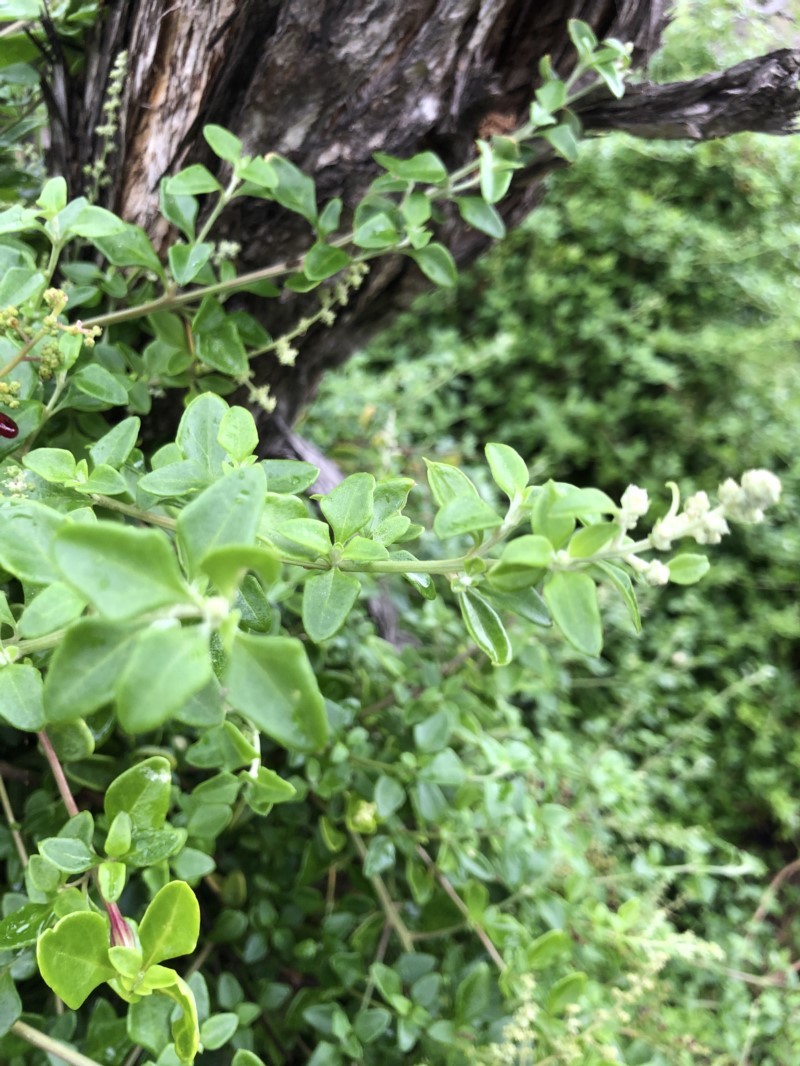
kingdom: Plantae
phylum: Tracheophyta
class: Magnoliopsida
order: Caryophyllales
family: Amaranthaceae
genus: Chenopodium
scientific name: Chenopodium candolleanum
